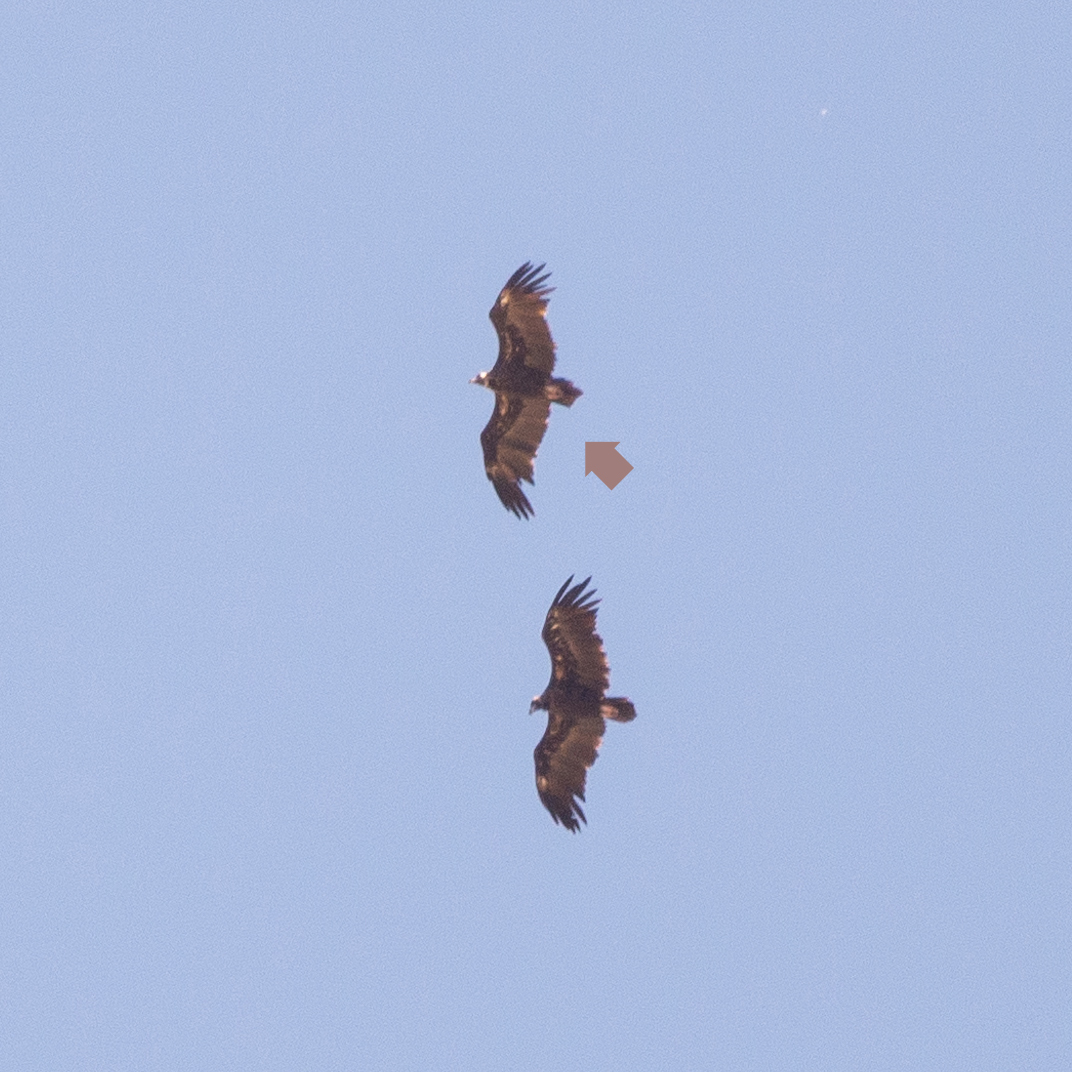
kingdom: Animalia
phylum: Chordata
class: Aves
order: Accipitriformes
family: Accipitridae
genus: Aegypius
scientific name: Aegypius monachus
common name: Cinereous vulture
